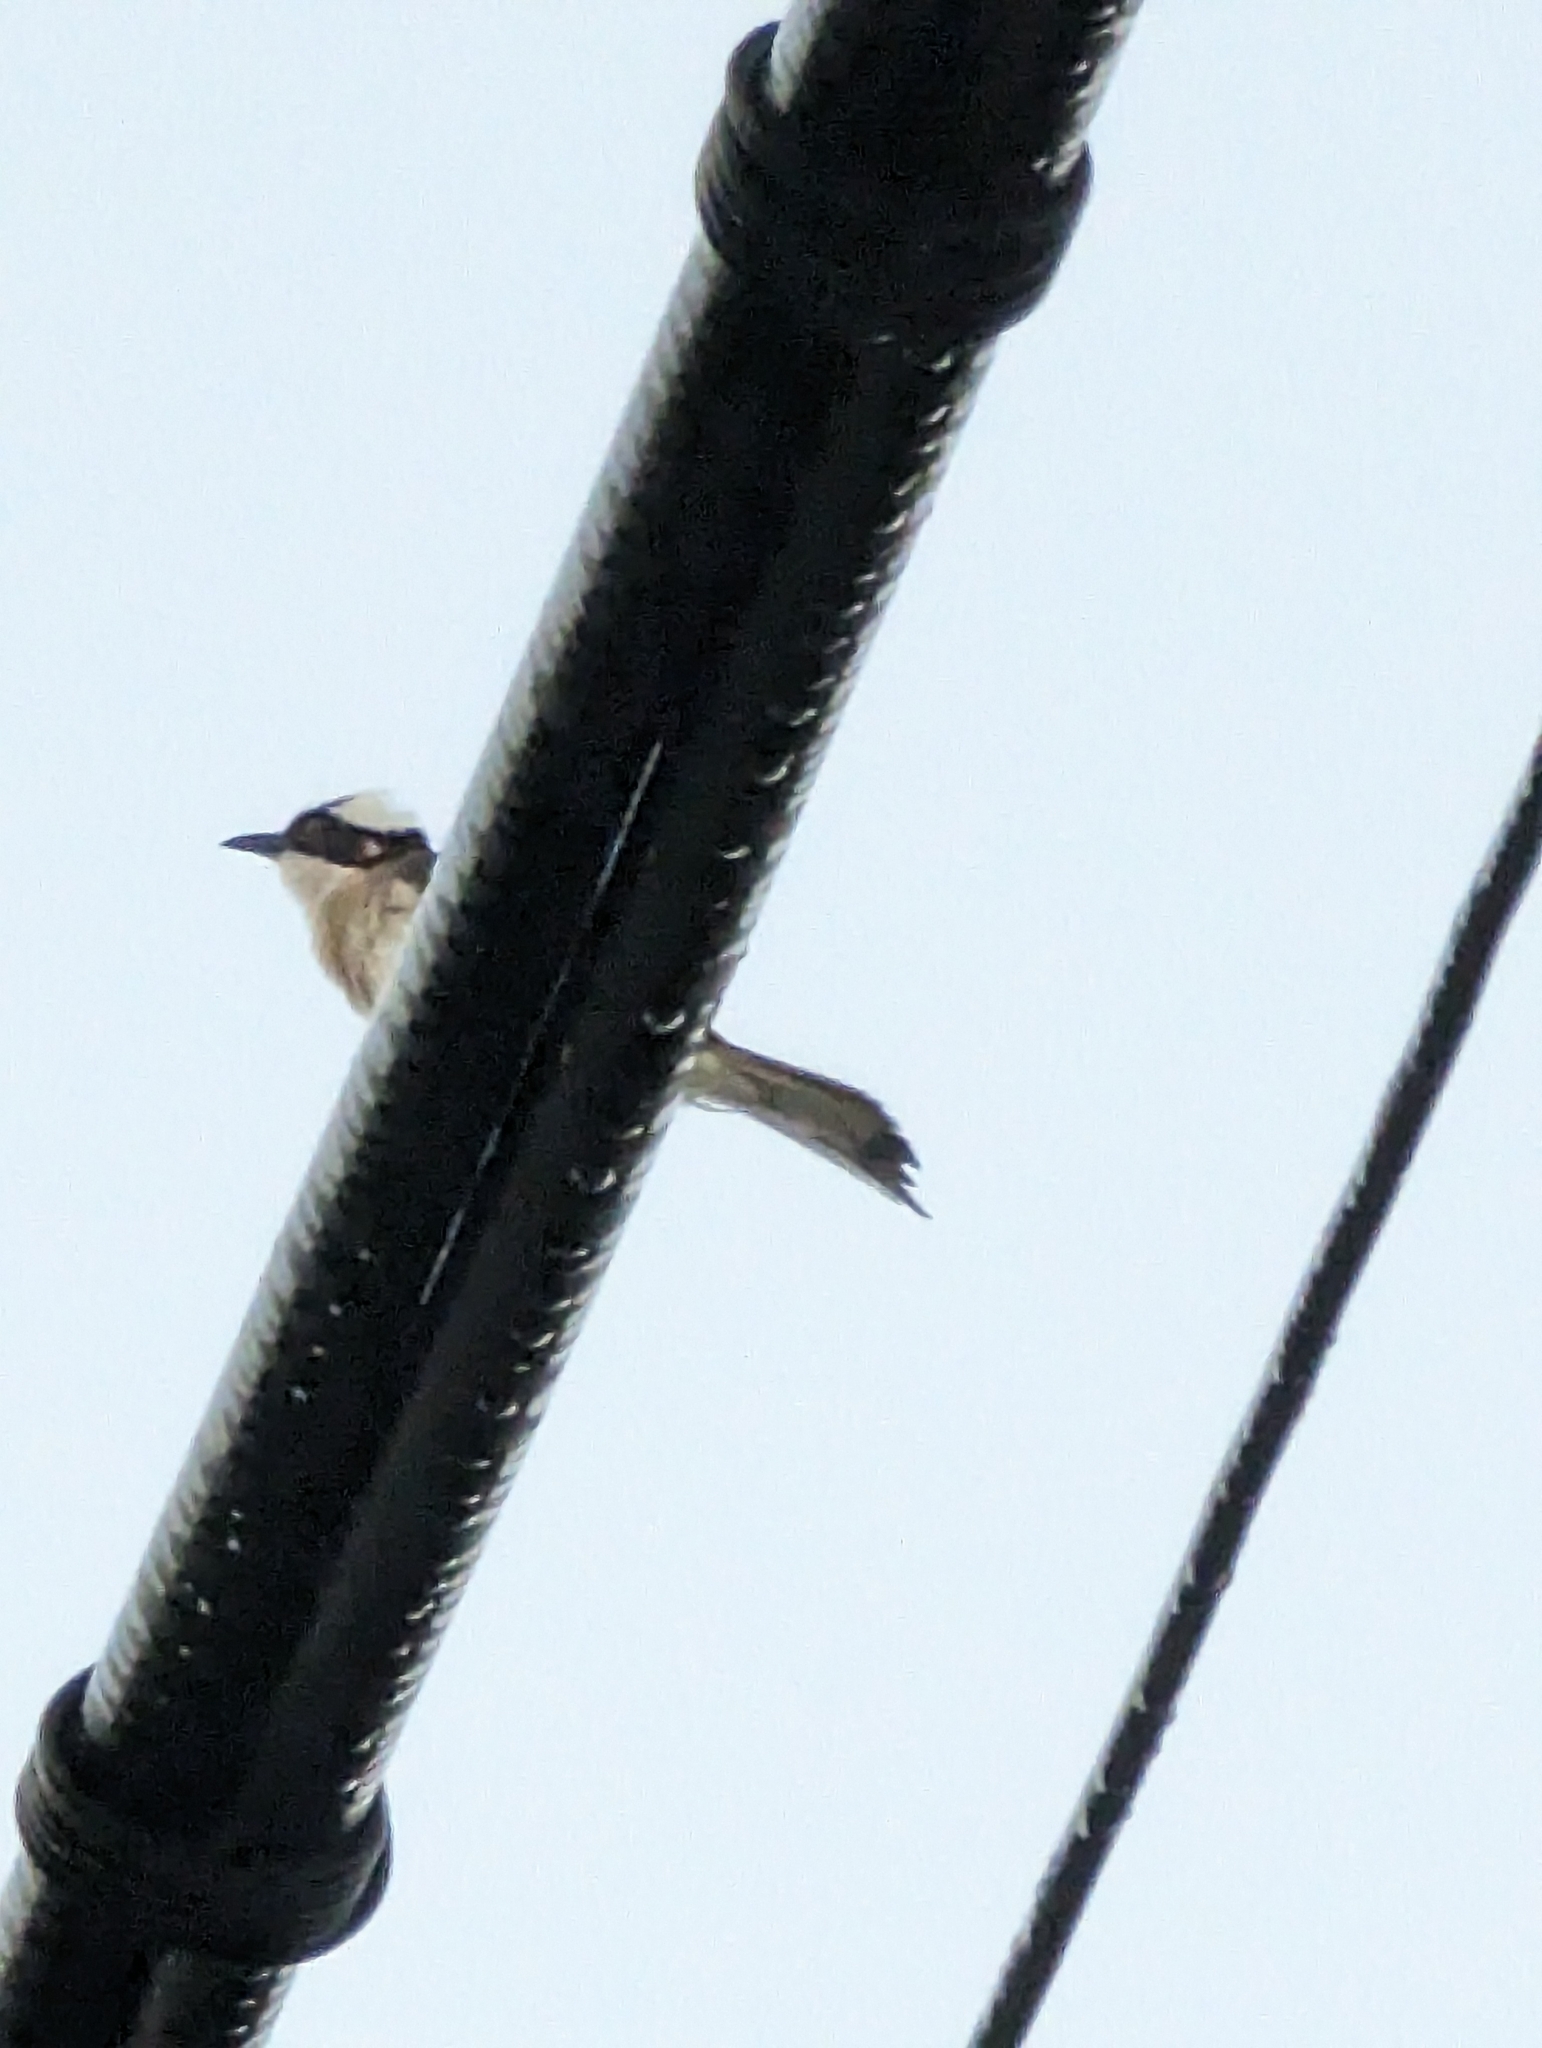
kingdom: Animalia
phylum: Chordata
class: Aves
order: Passeriformes
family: Pycnonotidae
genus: Pycnonotus
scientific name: Pycnonotus sinensis
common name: Light-vented bulbul
